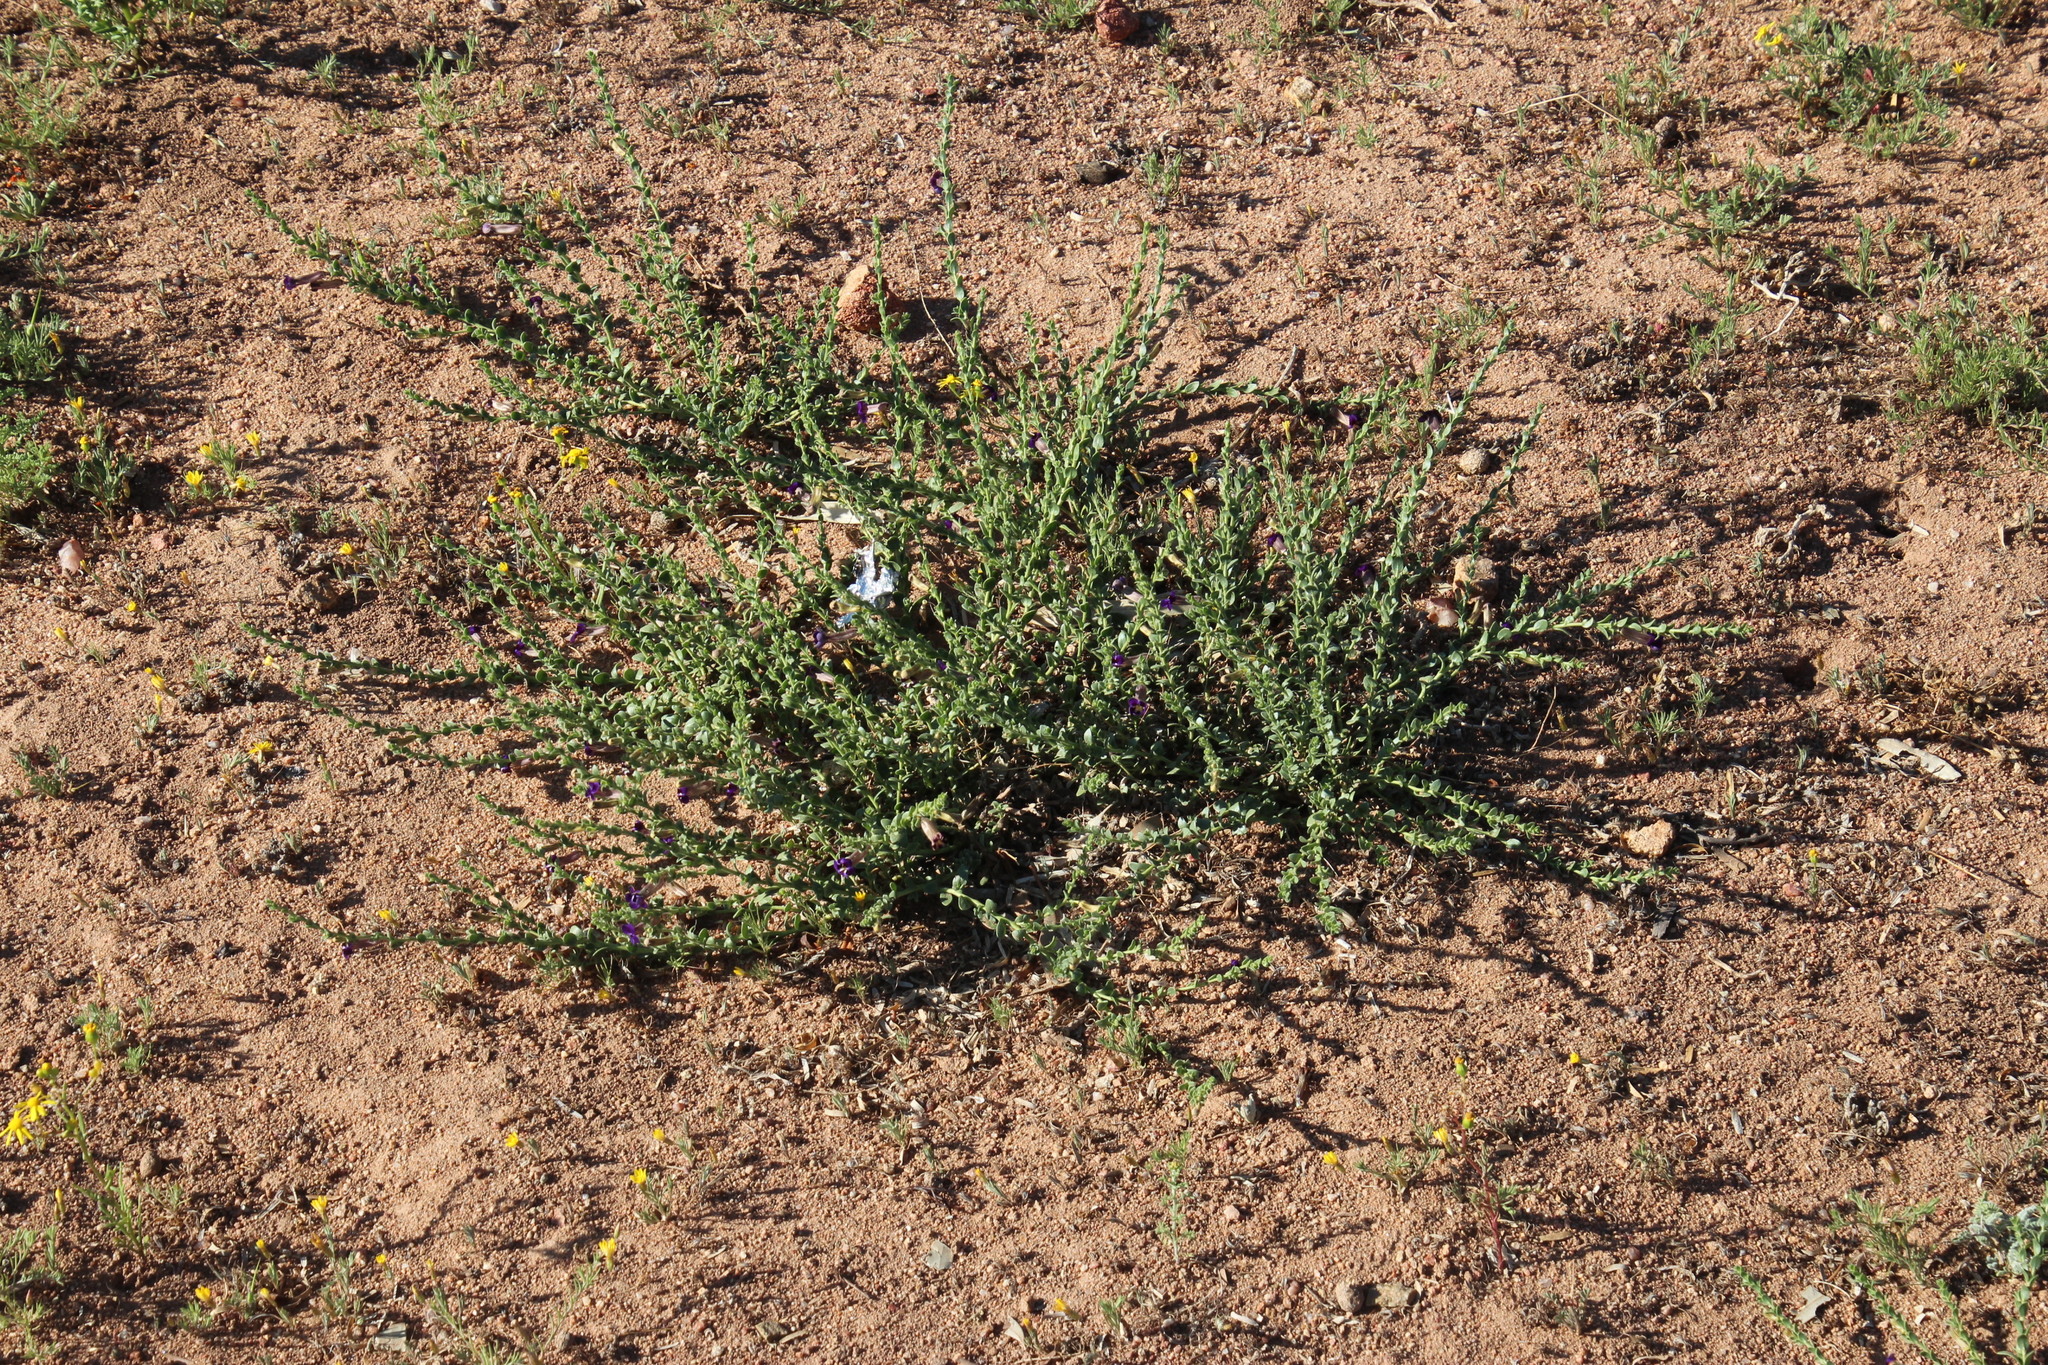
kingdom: Plantae
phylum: Tracheophyta
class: Magnoliopsida
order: Lamiales
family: Scrophulariaceae
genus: Peliostomum
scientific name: Peliostomum virgatum
